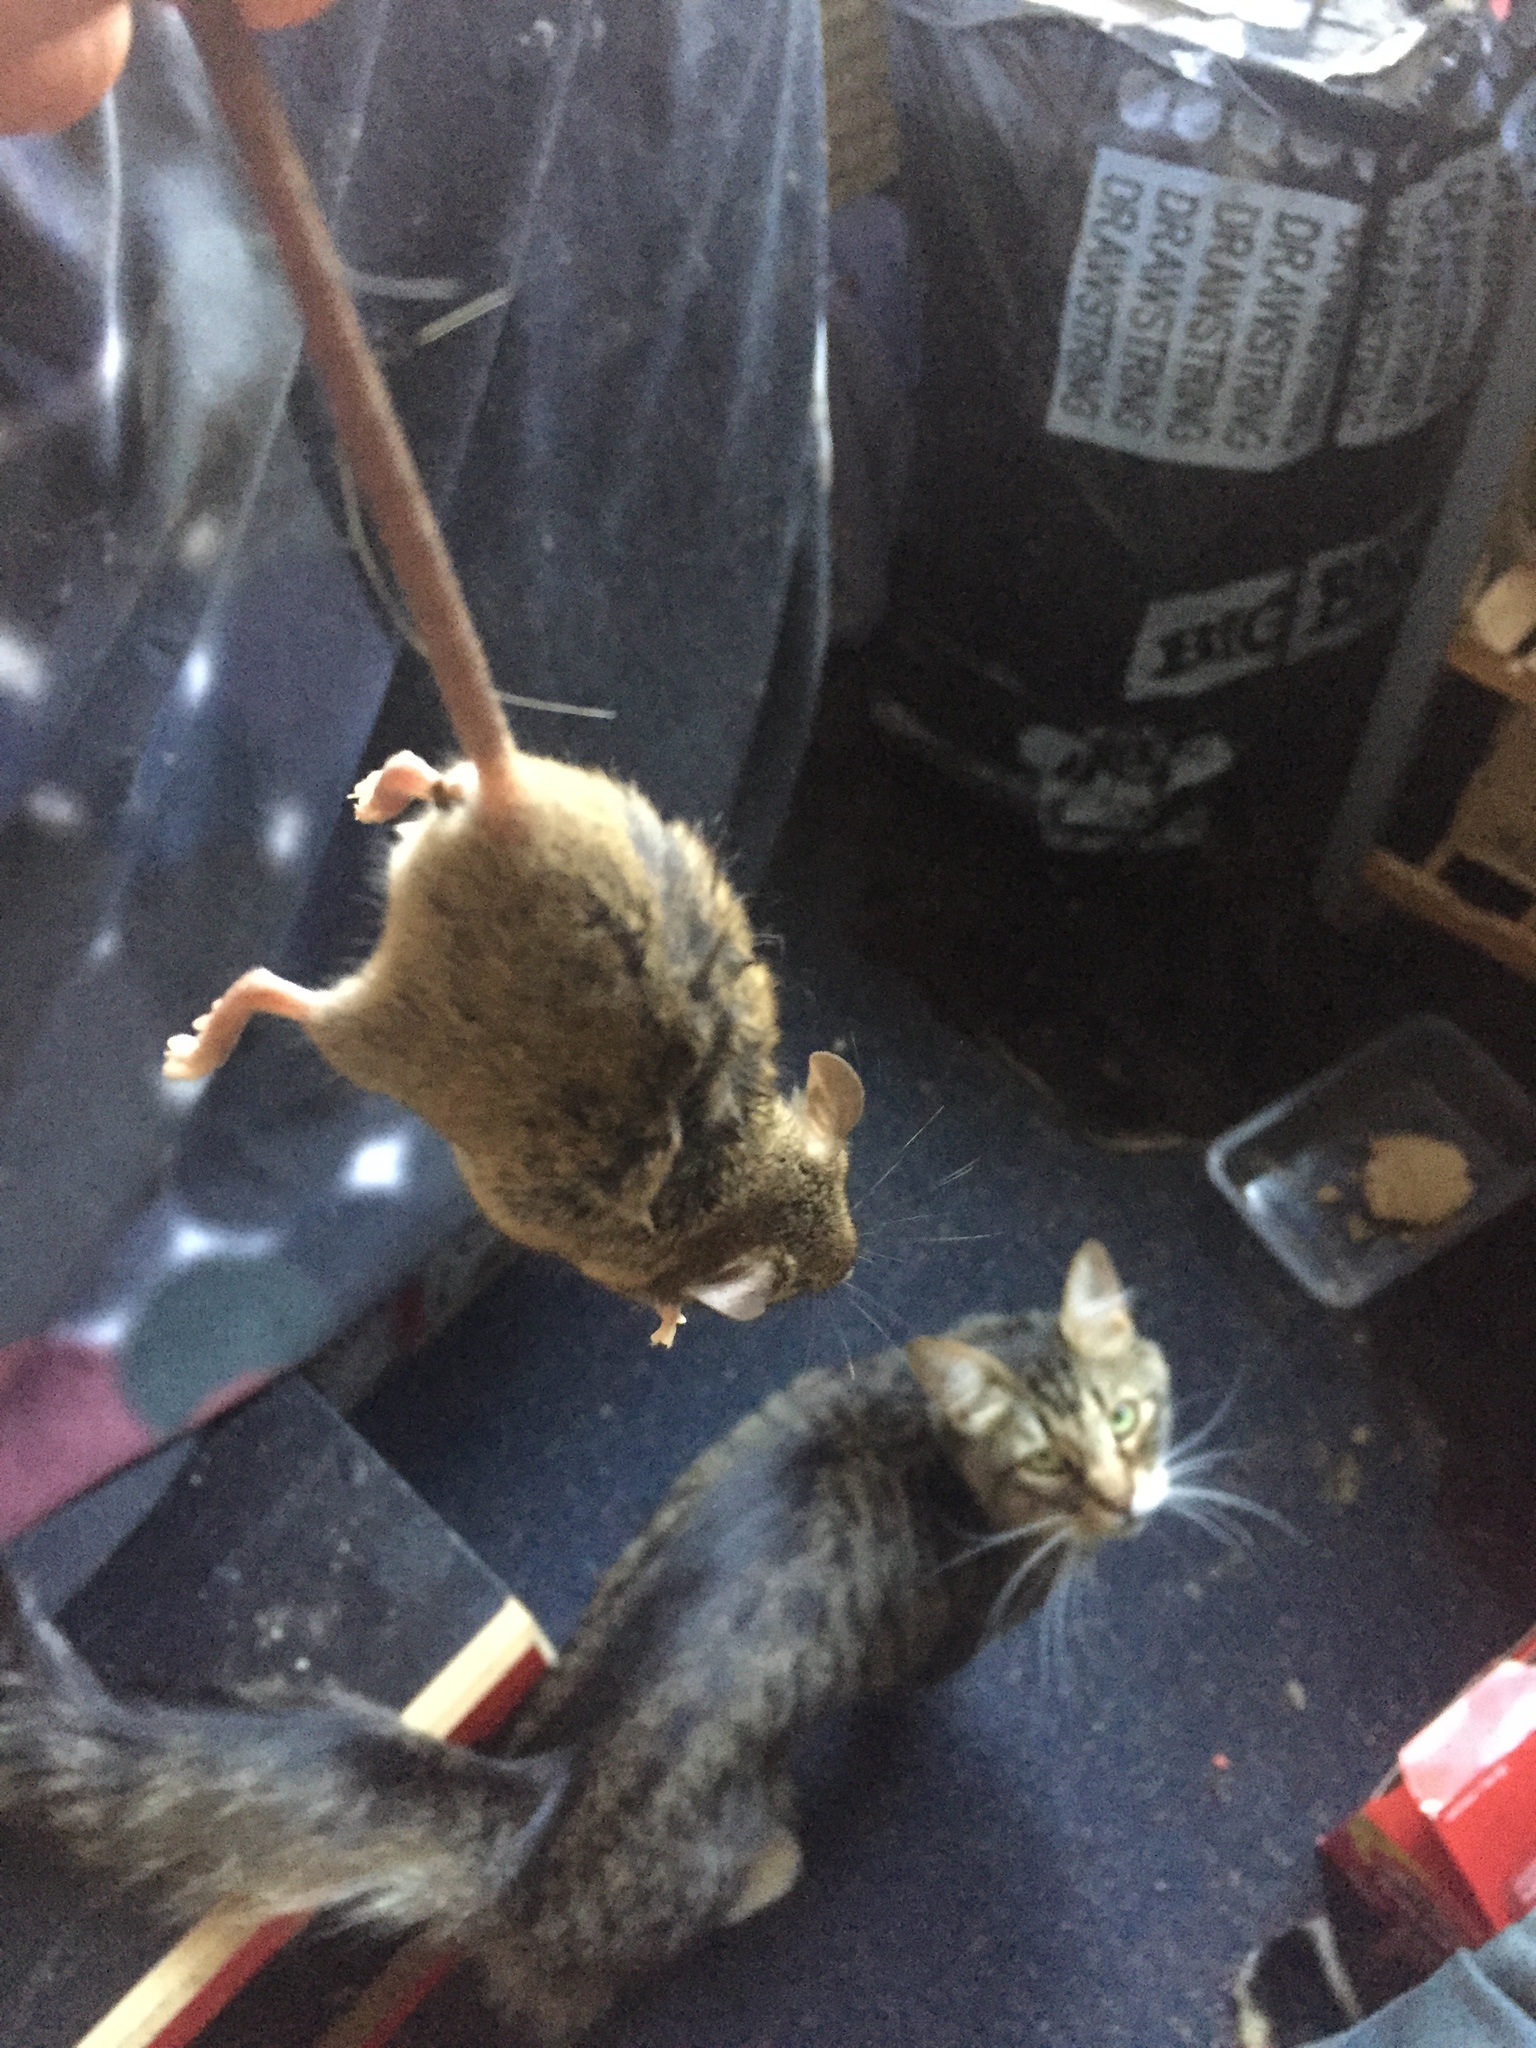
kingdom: Animalia
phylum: Chordata
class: Mammalia
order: Rodentia
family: Muridae
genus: Mus
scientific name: Mus musculus
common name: House mouse
